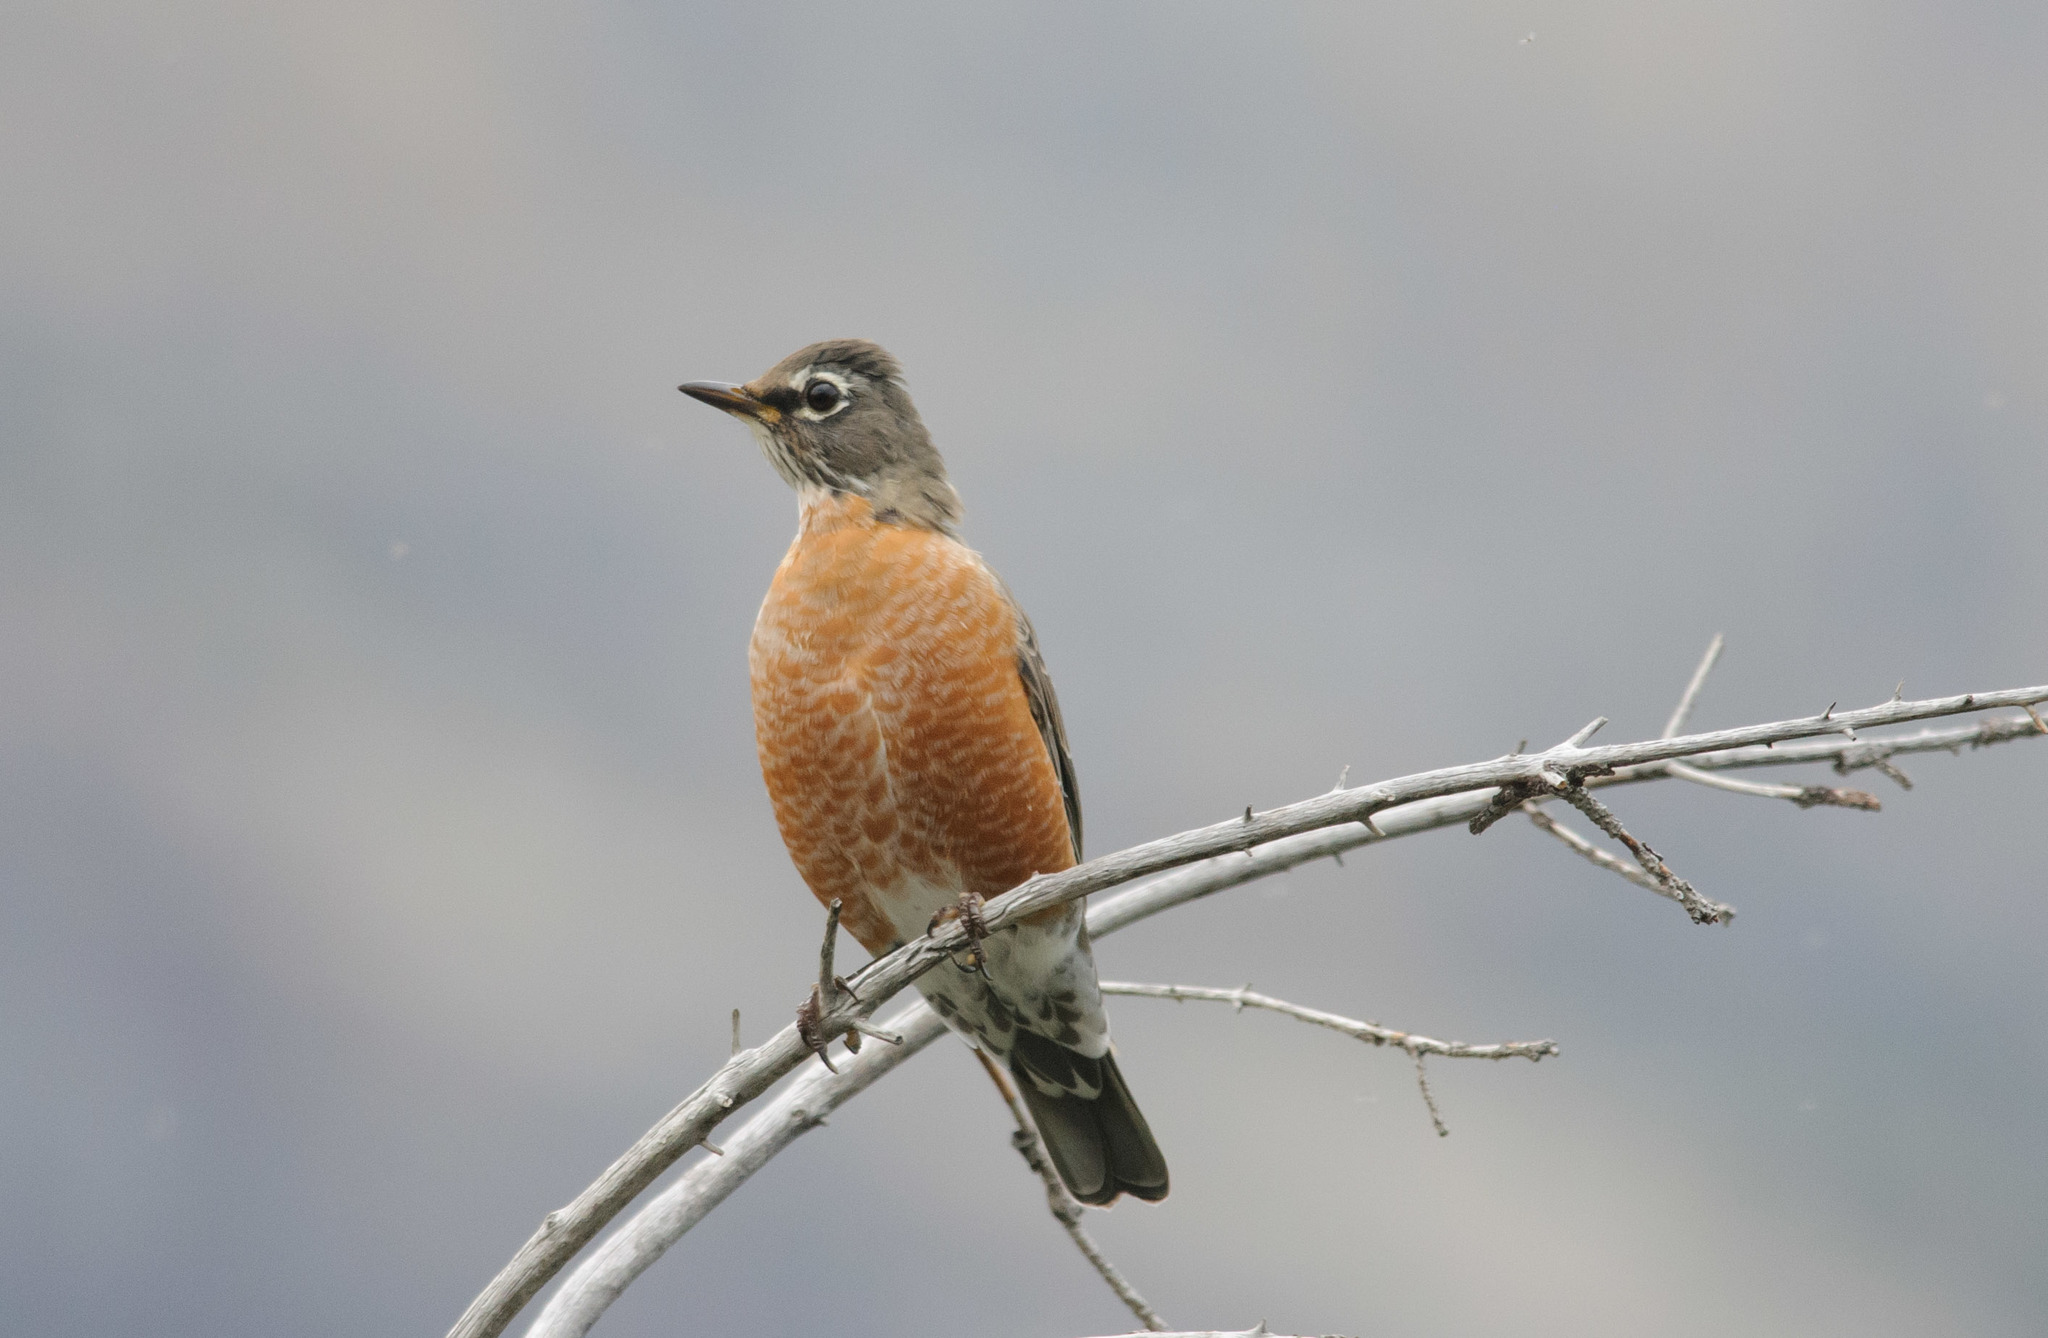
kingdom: Animalia
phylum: Chordata
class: Aves
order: Passeriformes
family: Turdidae
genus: Turdus
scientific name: Turdus migratorius
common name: American robin
